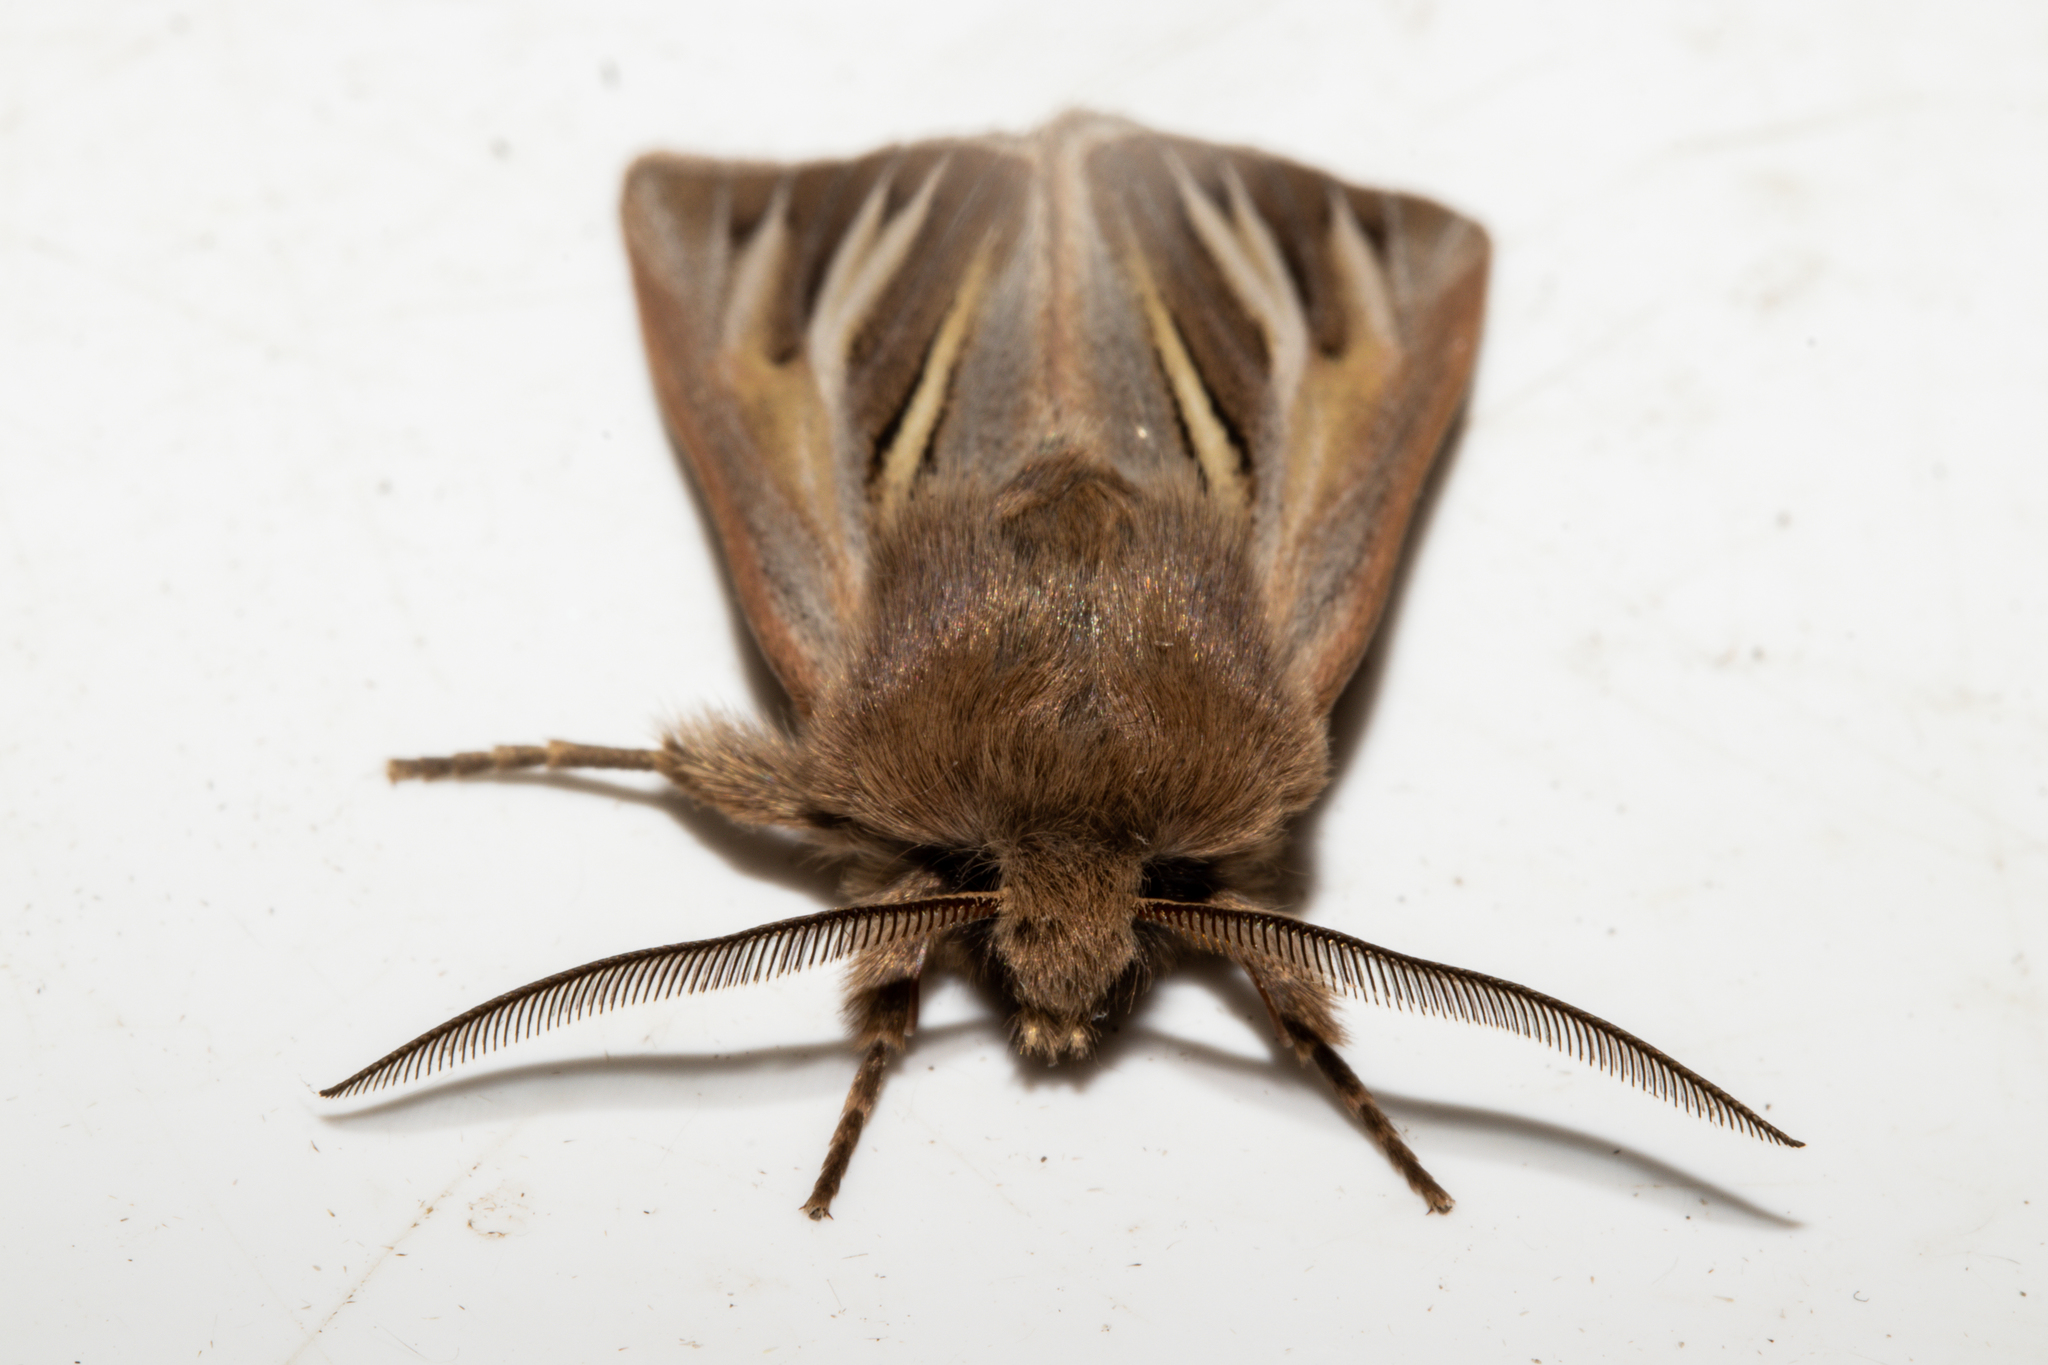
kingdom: Animalia
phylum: Arthropoda
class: Insecta
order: Lepidoptera
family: Noctuidae
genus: Ichneutica
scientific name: Ichneutica caraunias
